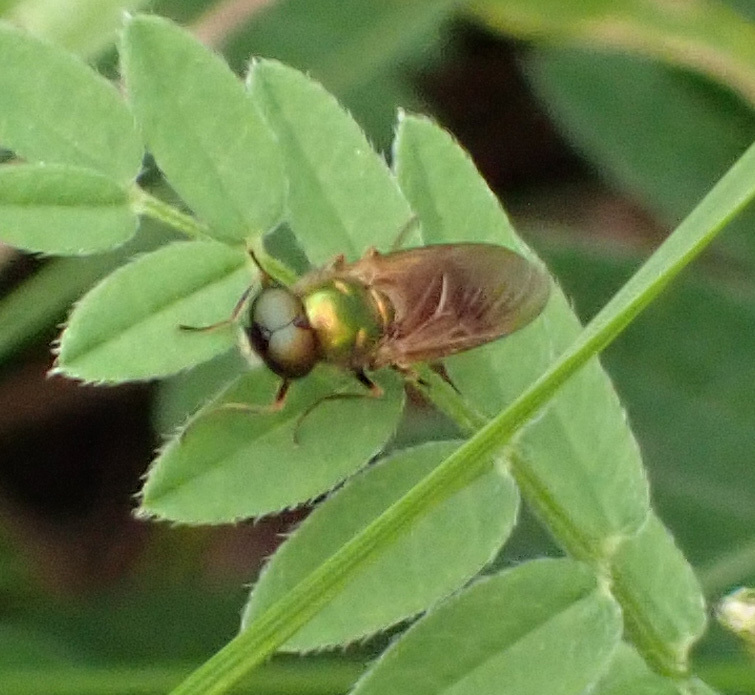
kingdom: Animalia
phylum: Arthropoda
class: Insecta
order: Diptera
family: Stratiomyidae
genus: Chloromyia
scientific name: Chloromyia formosa
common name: Soldier fly
